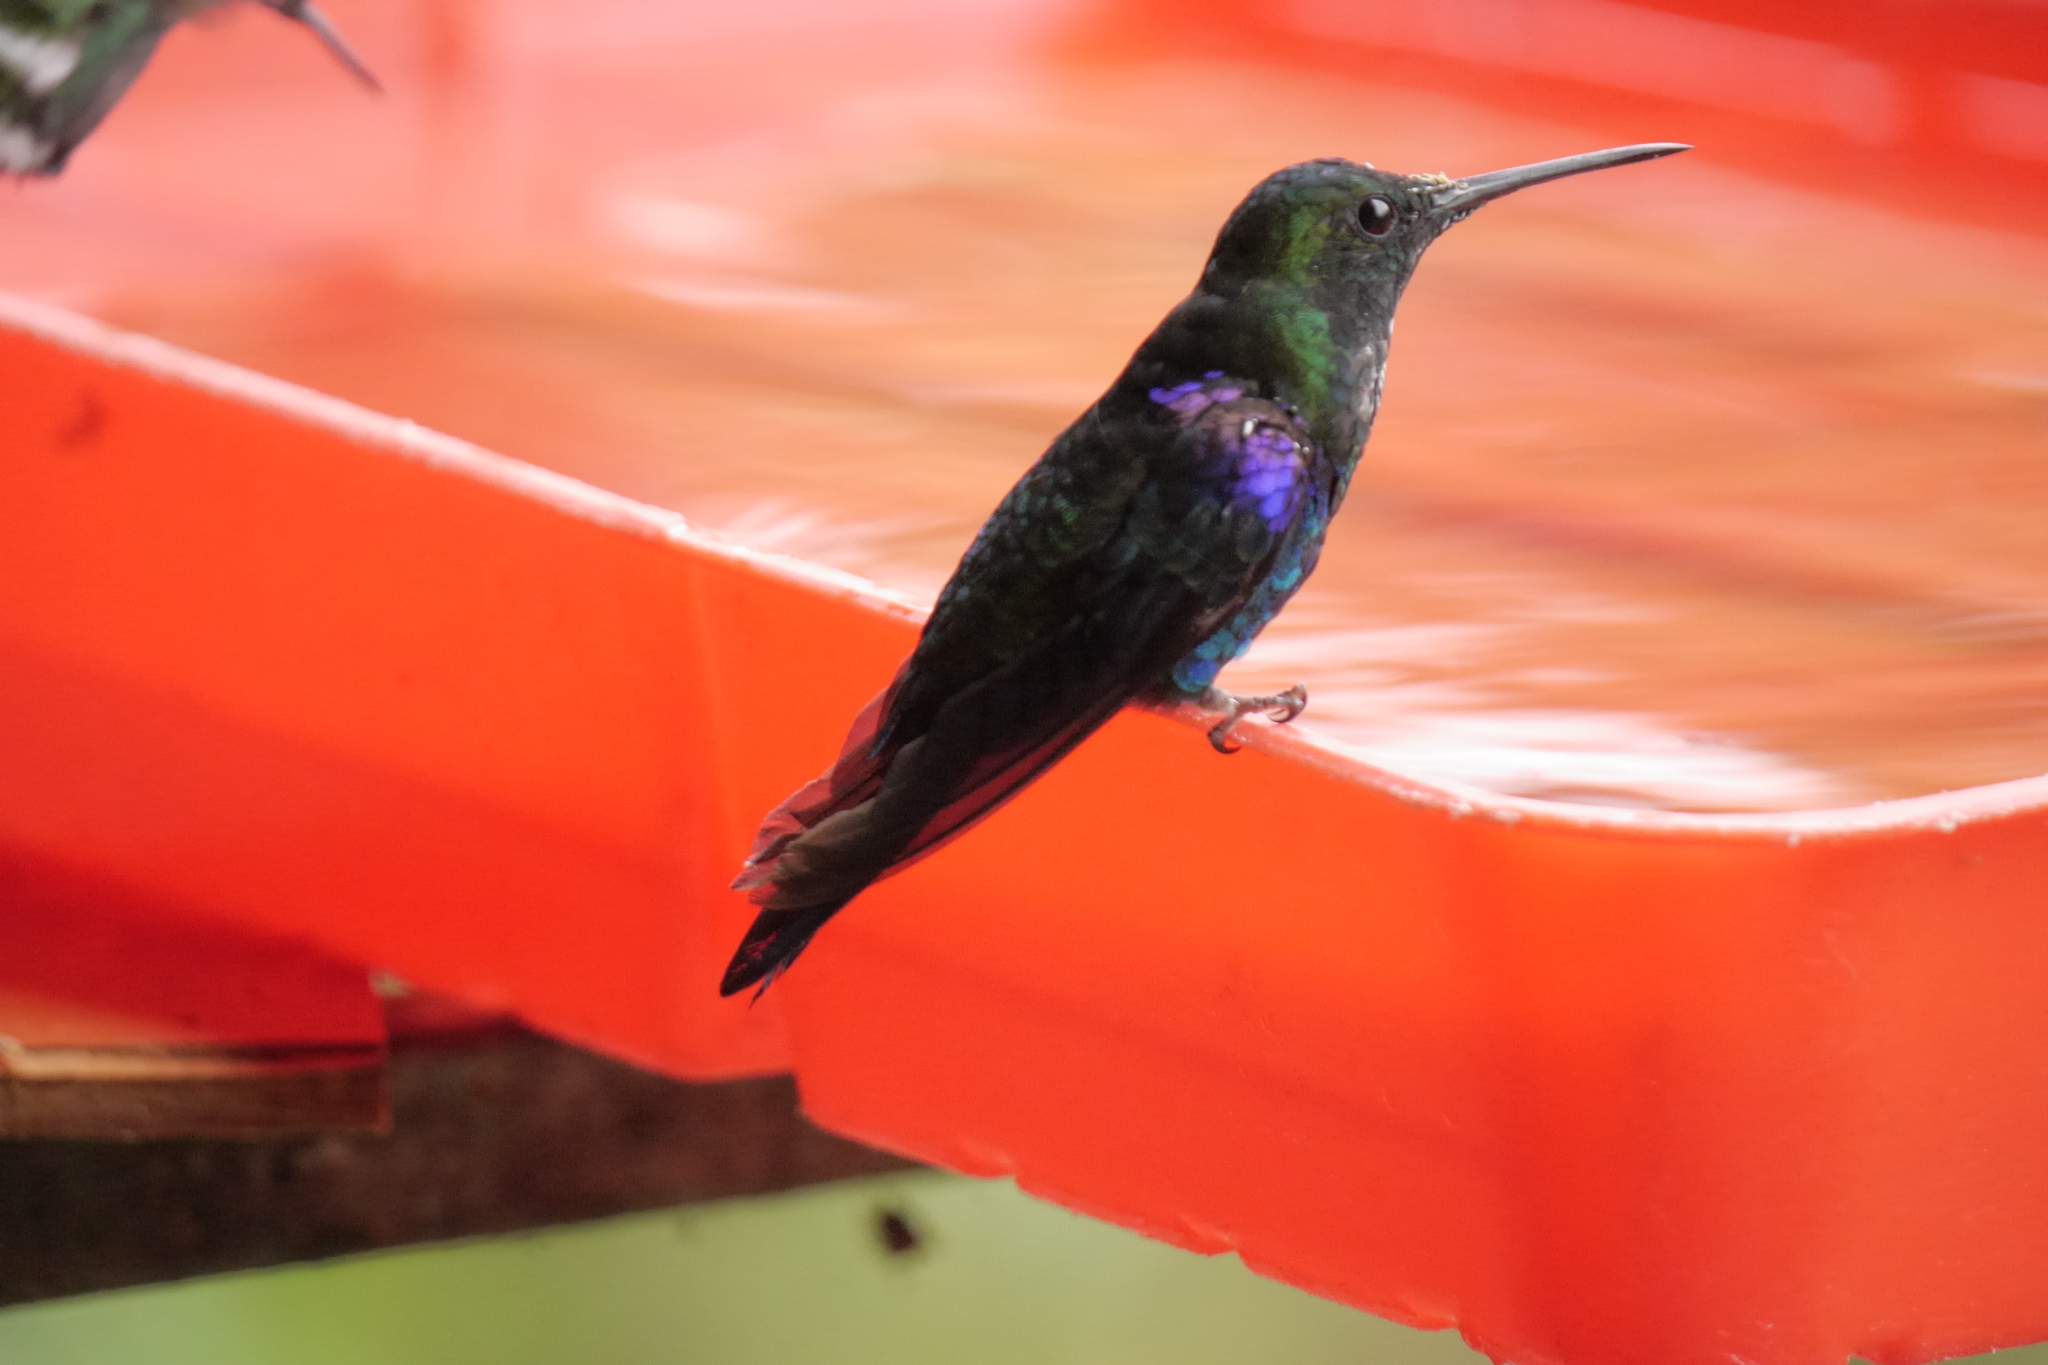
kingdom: Animalia
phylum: Chordata
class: Aves
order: Apodiformes
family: Trochilidae
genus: Thalurania
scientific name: Thalurania colombica
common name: Crowned woodnymph
